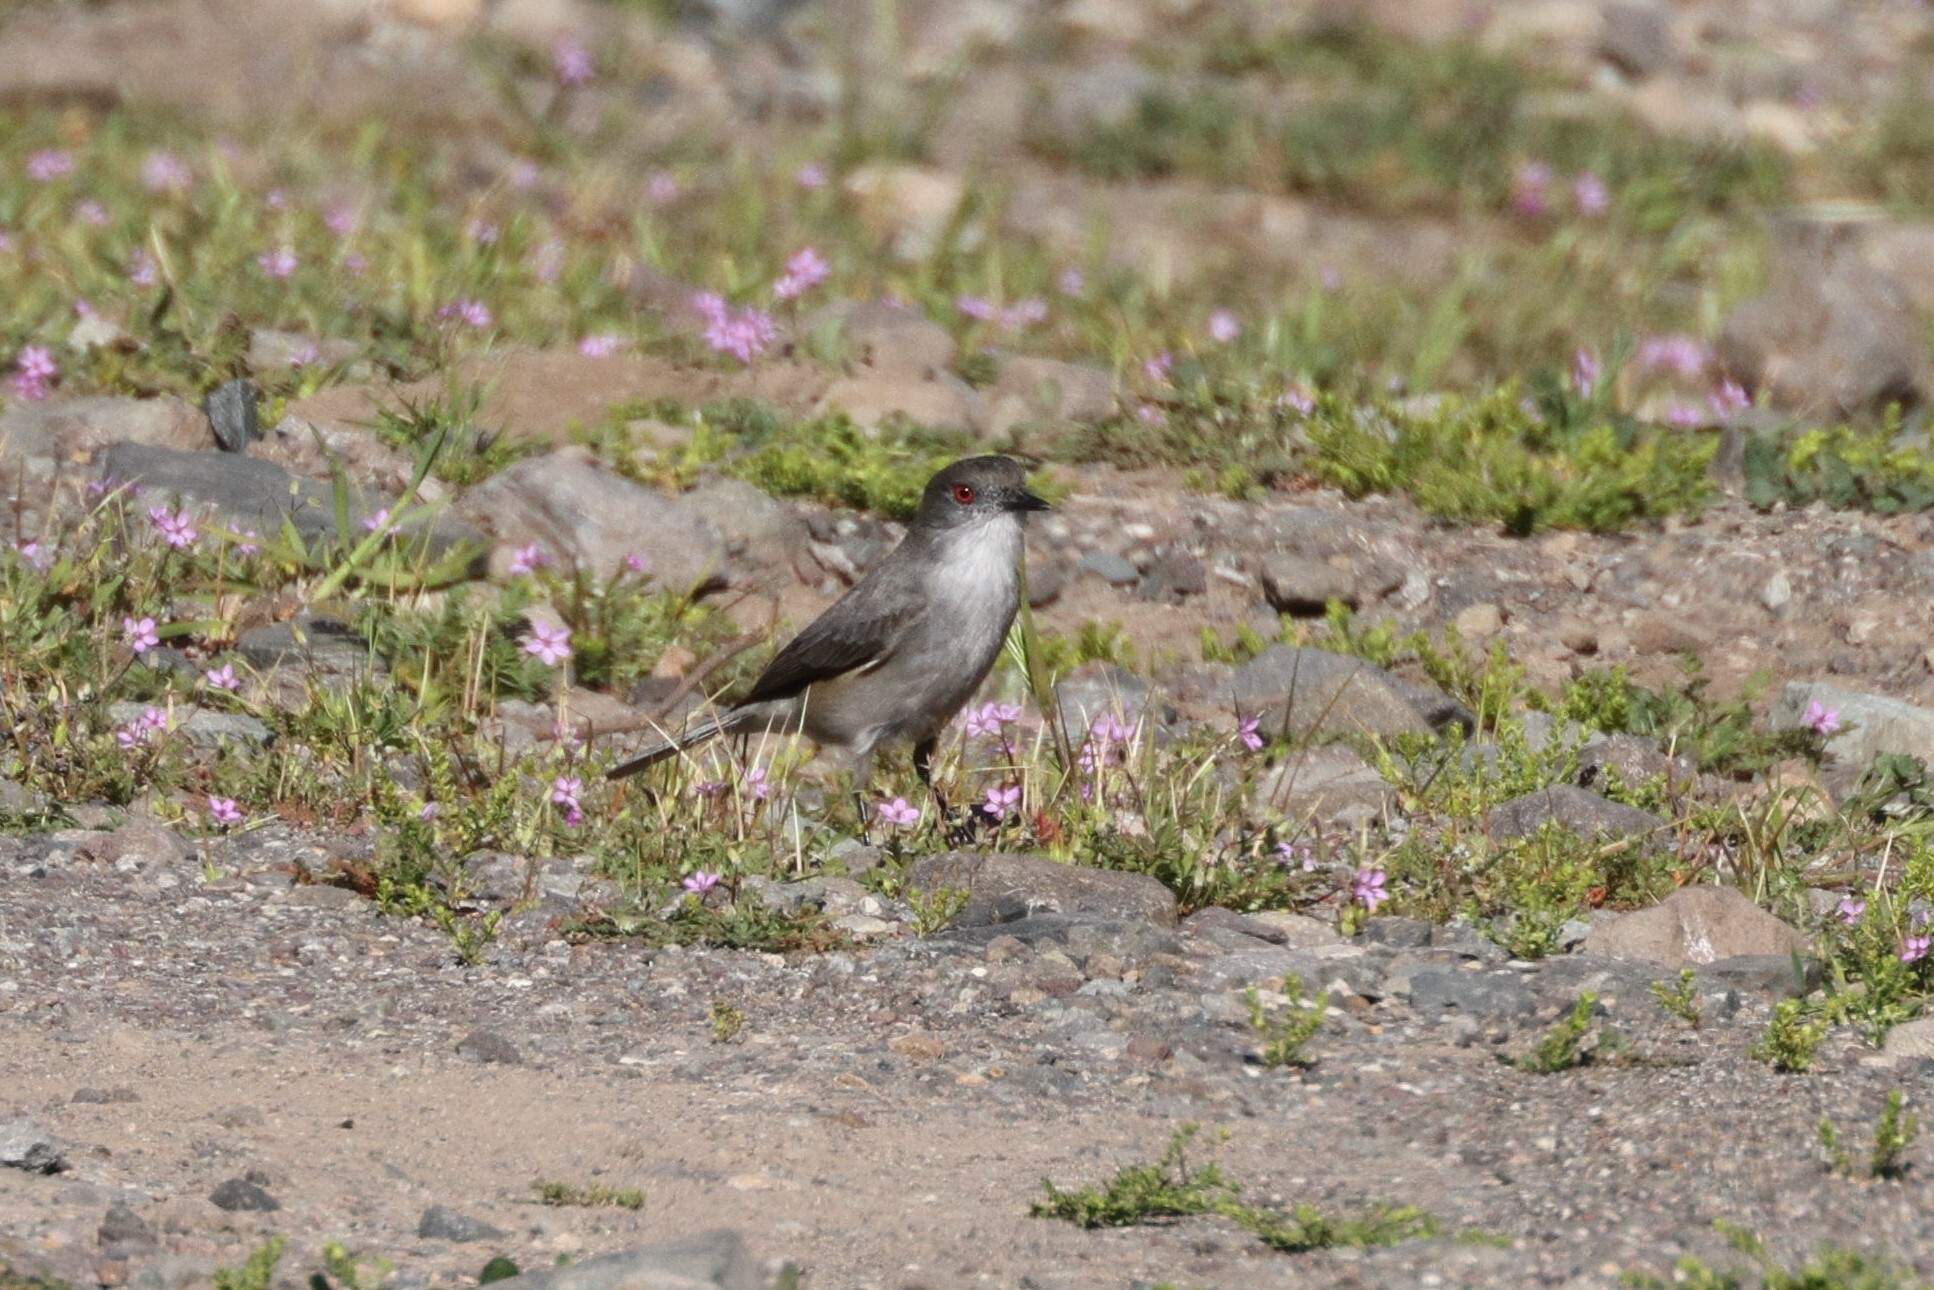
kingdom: Animalia
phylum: Chordata
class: Aves
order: Passeriformes
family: Tyrannidae
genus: Xolmis
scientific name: Xolmis pyrope
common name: Fire-eyed diucon
